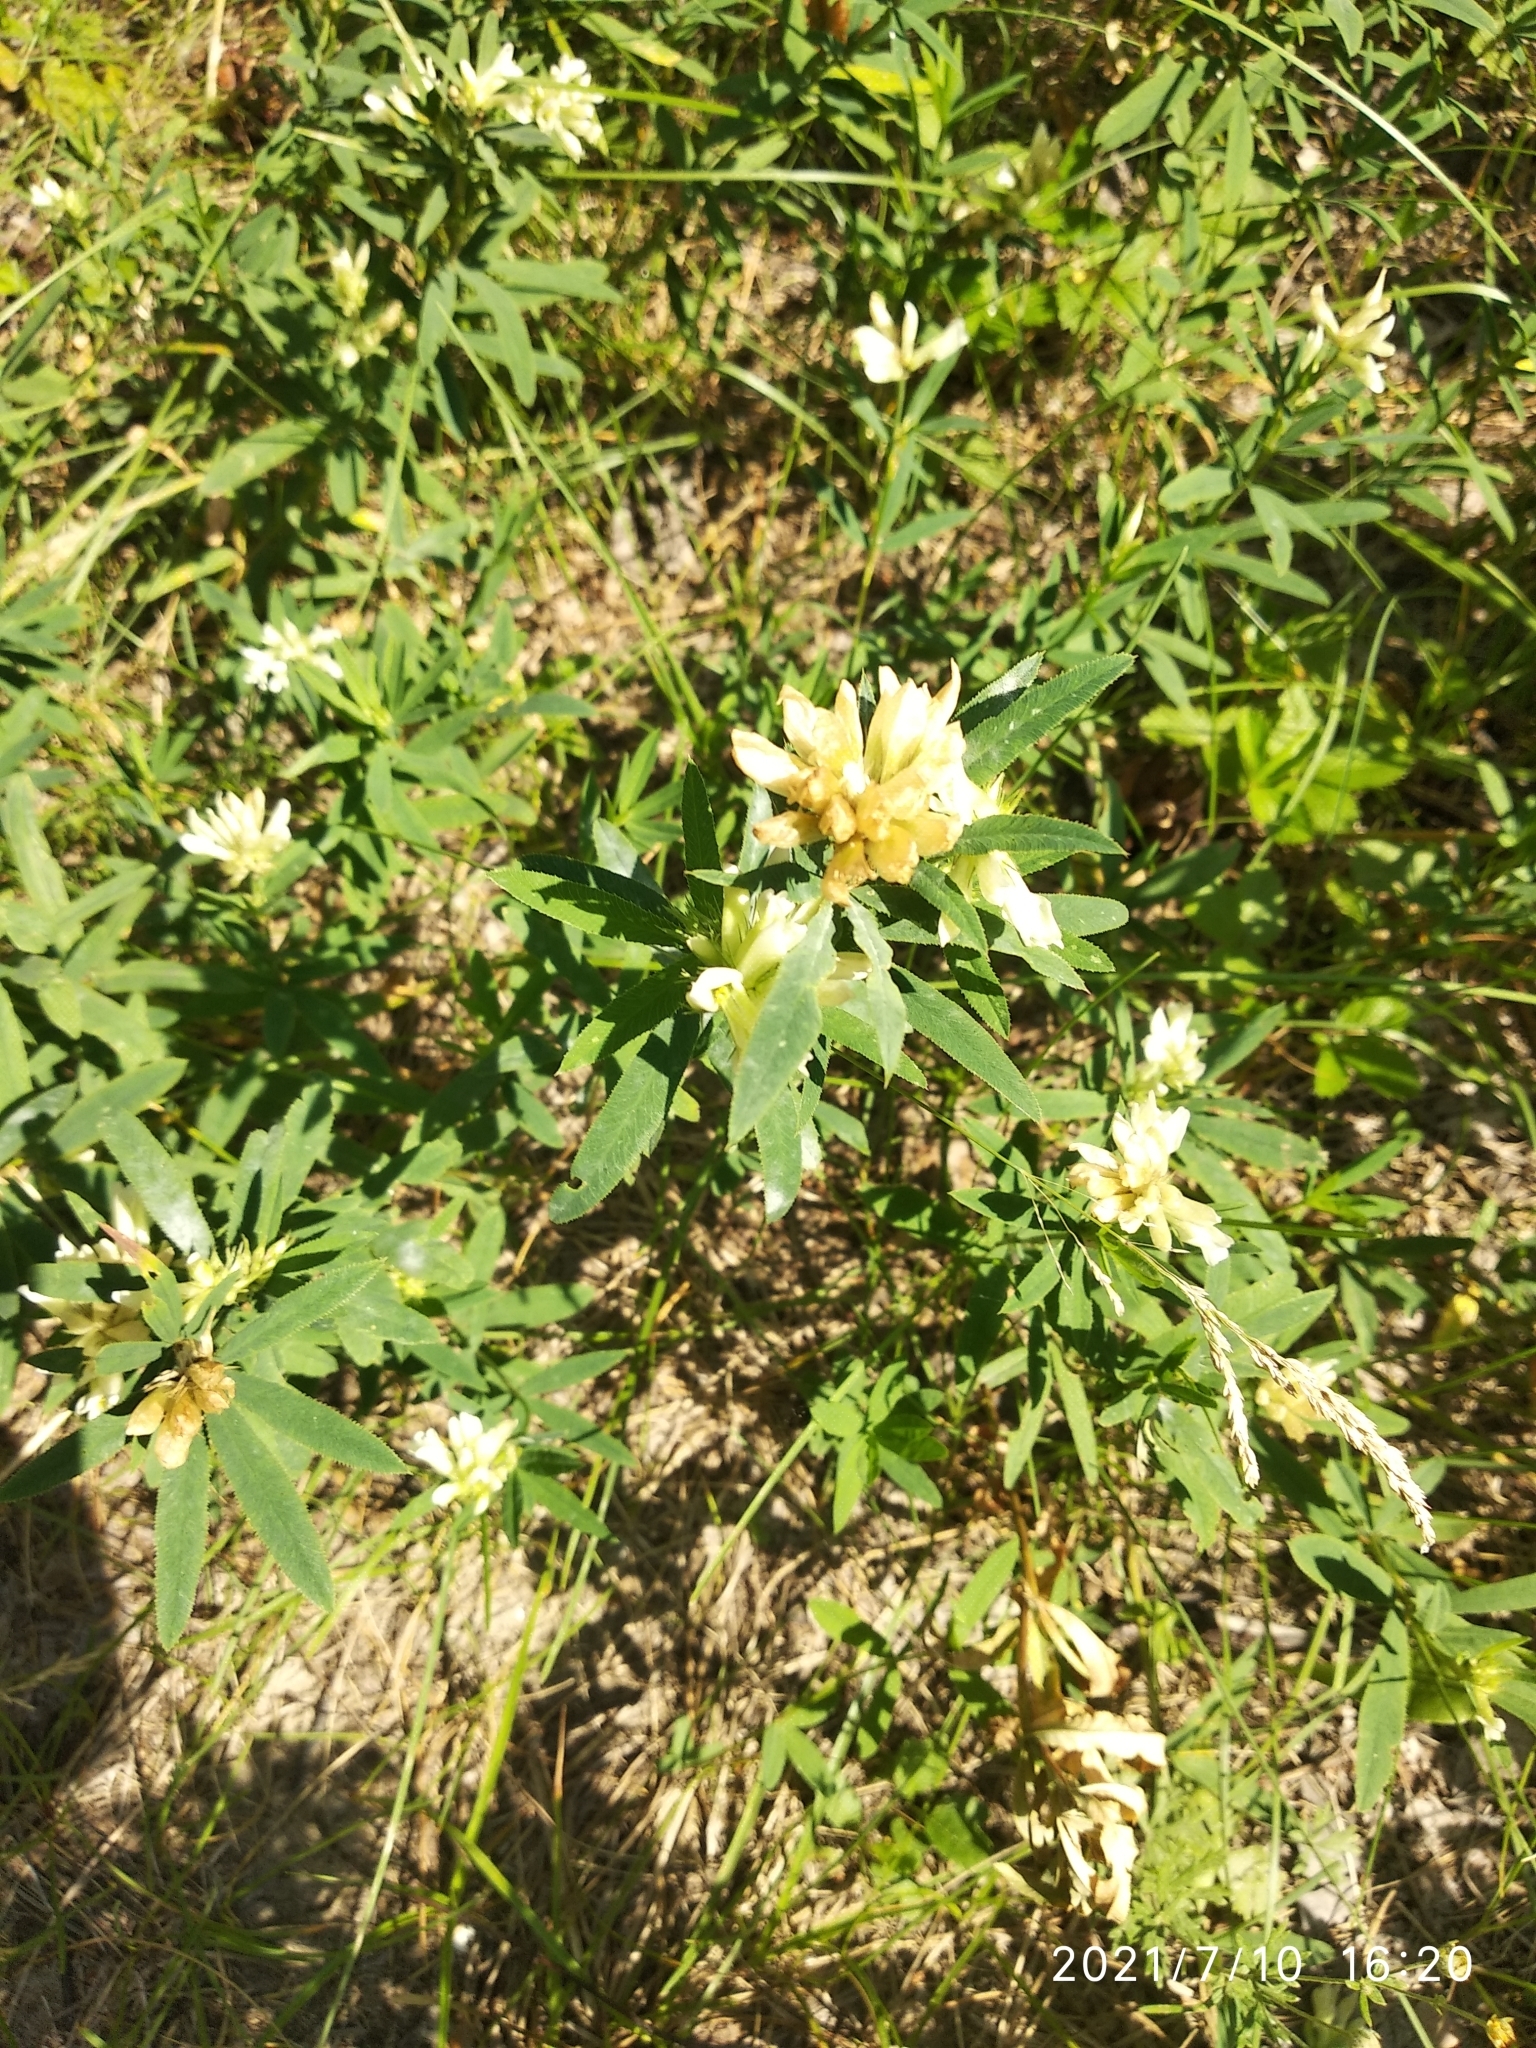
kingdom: Plantae
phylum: Tracheophyta
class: Magnoliopsida
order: Fabales
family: Fabaceae
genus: Trifolium
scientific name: Trifolium lupinaster
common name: Lupine clover
